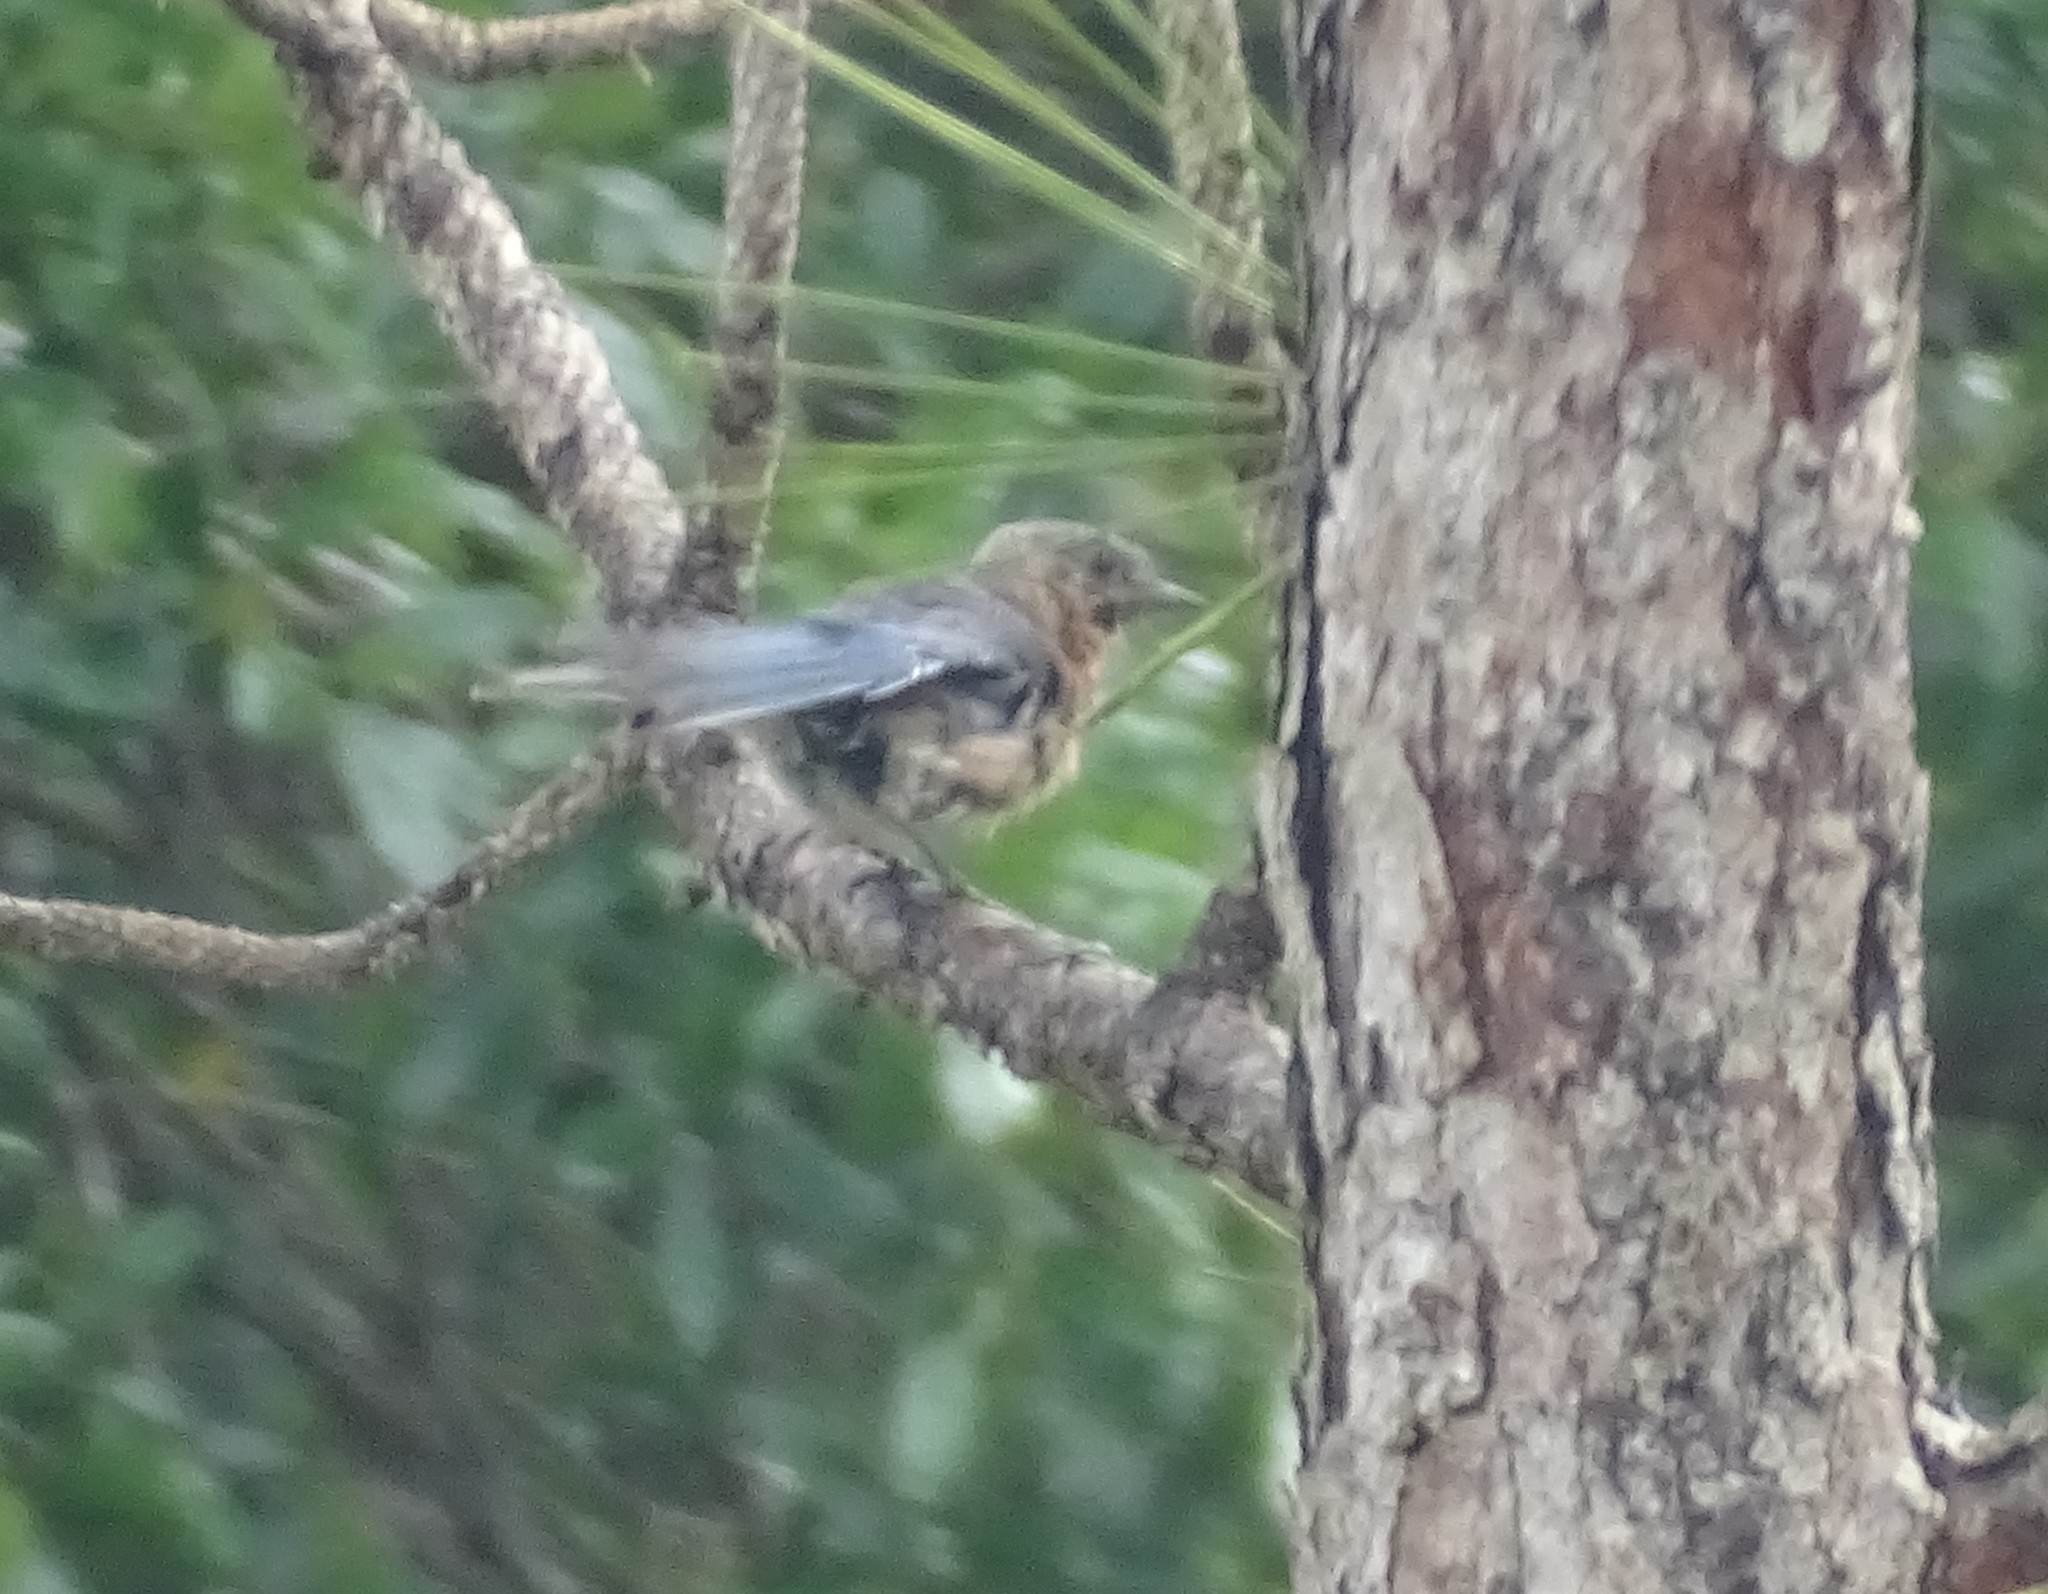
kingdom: Animalia
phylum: Chordata
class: Aves
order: Passeriformes
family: Turdidae
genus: Sialia
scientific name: Sialia sialis
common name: Eastern bluebird
